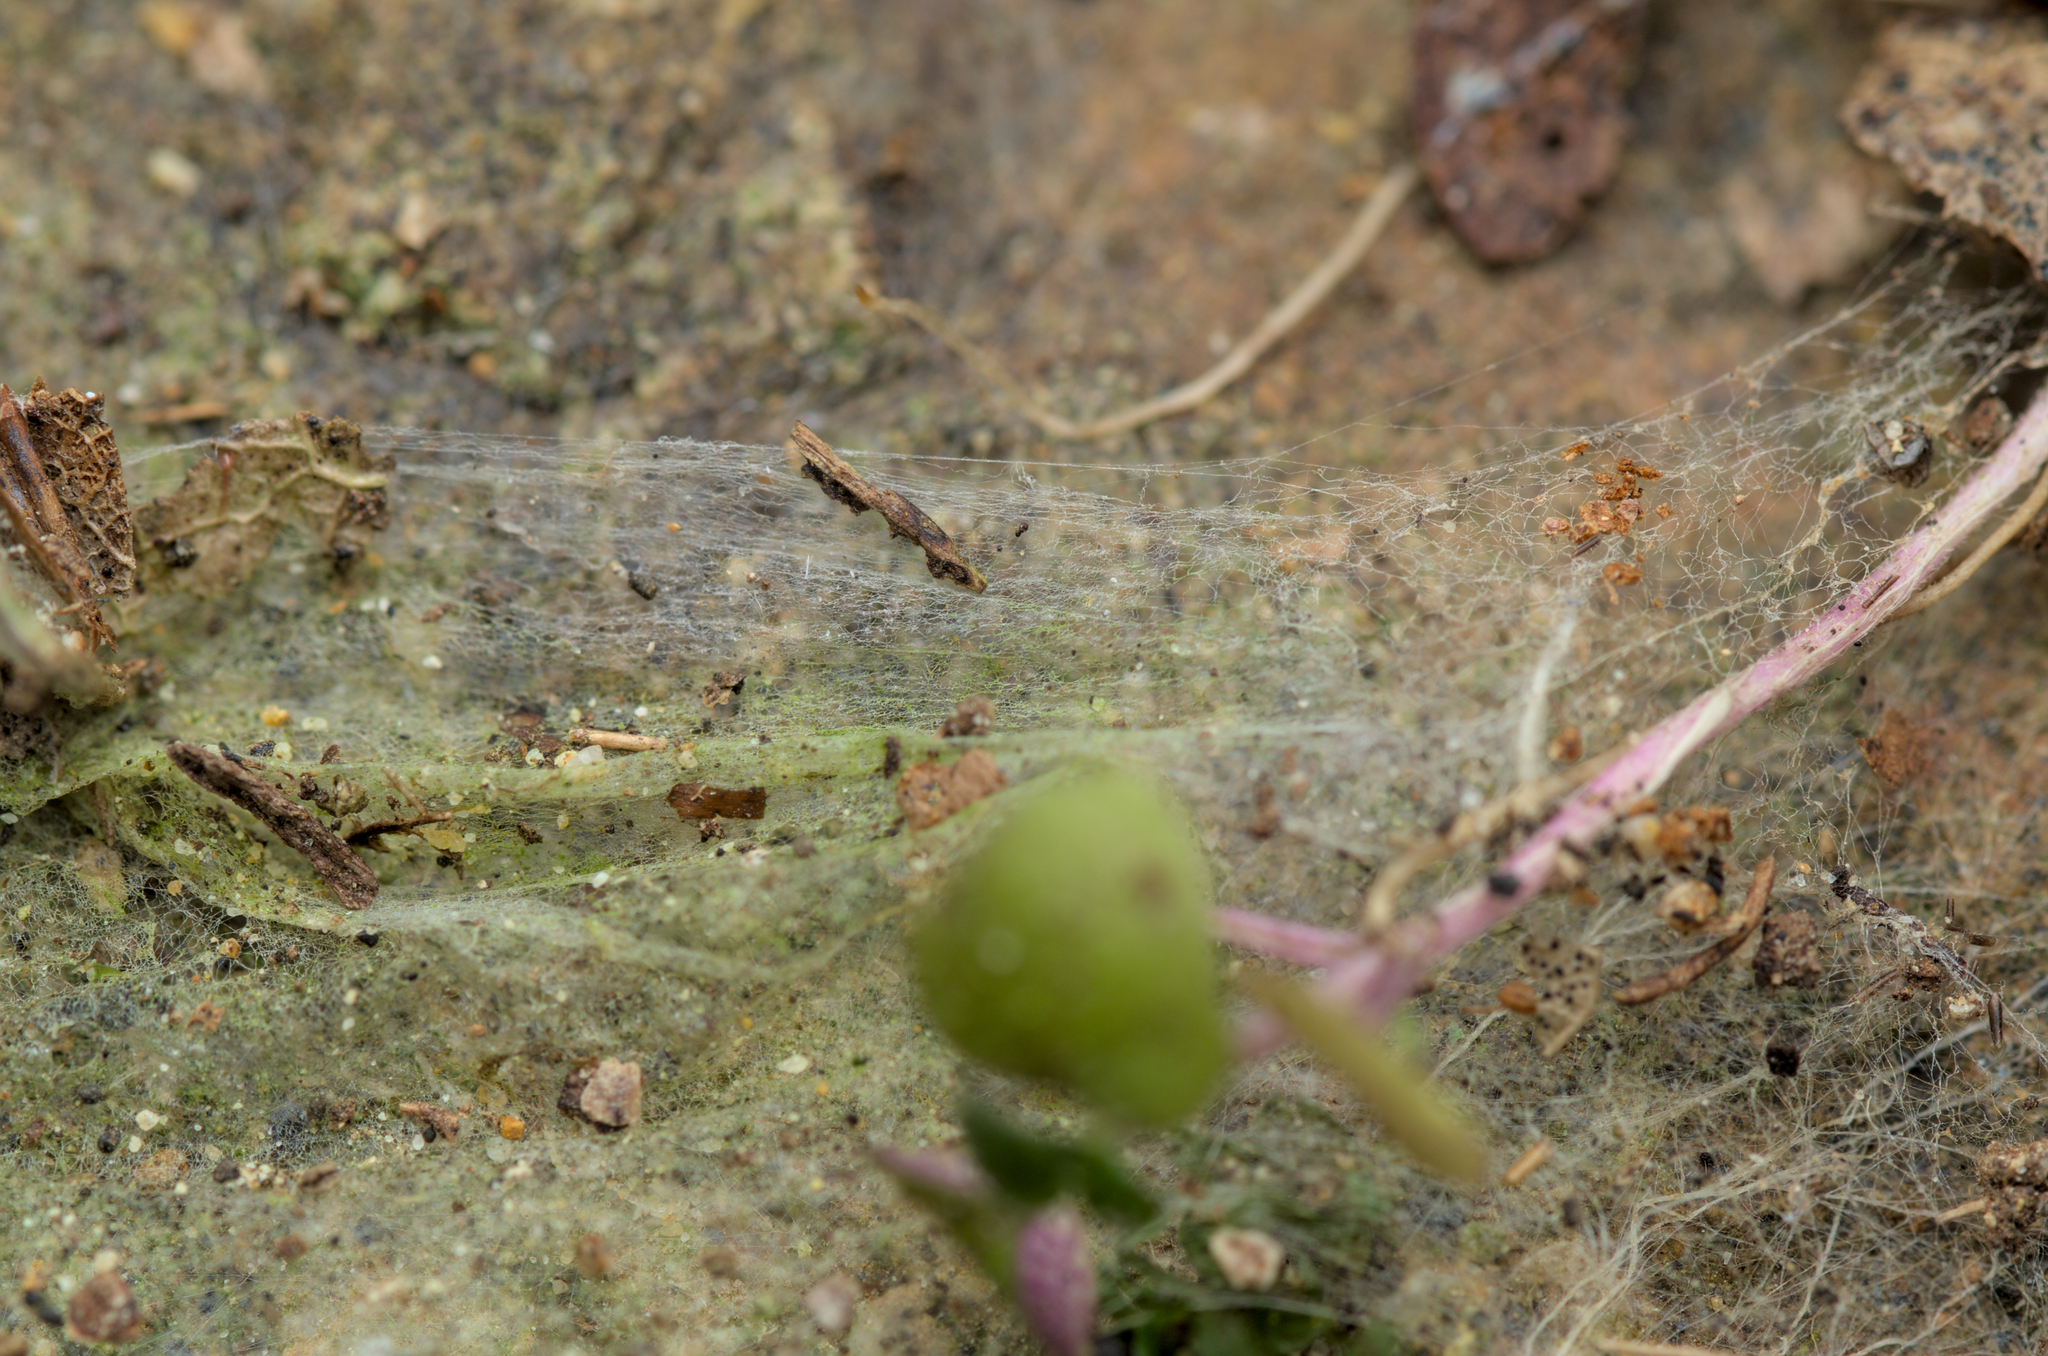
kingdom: Animalia
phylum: Arthropoda
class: Arachnida
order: Araneae
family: Linyphiidae
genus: Tapinopa
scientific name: Tapinopa longidens
